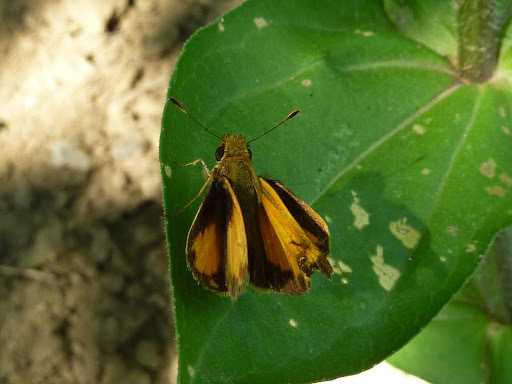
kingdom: Animalia
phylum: Arthropoda
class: Insecta
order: Lepidoptera
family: Hesperiidae
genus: Lon
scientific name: Lon zabulon
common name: Zabulon skipper
